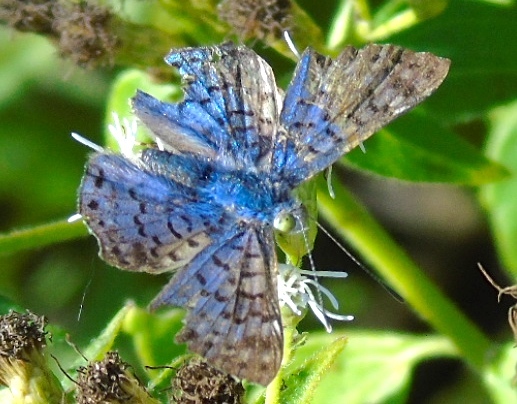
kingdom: Animalia
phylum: Arthropoda
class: Insecta
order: Lepidoptera
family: Riodinidae
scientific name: Riodinidae
